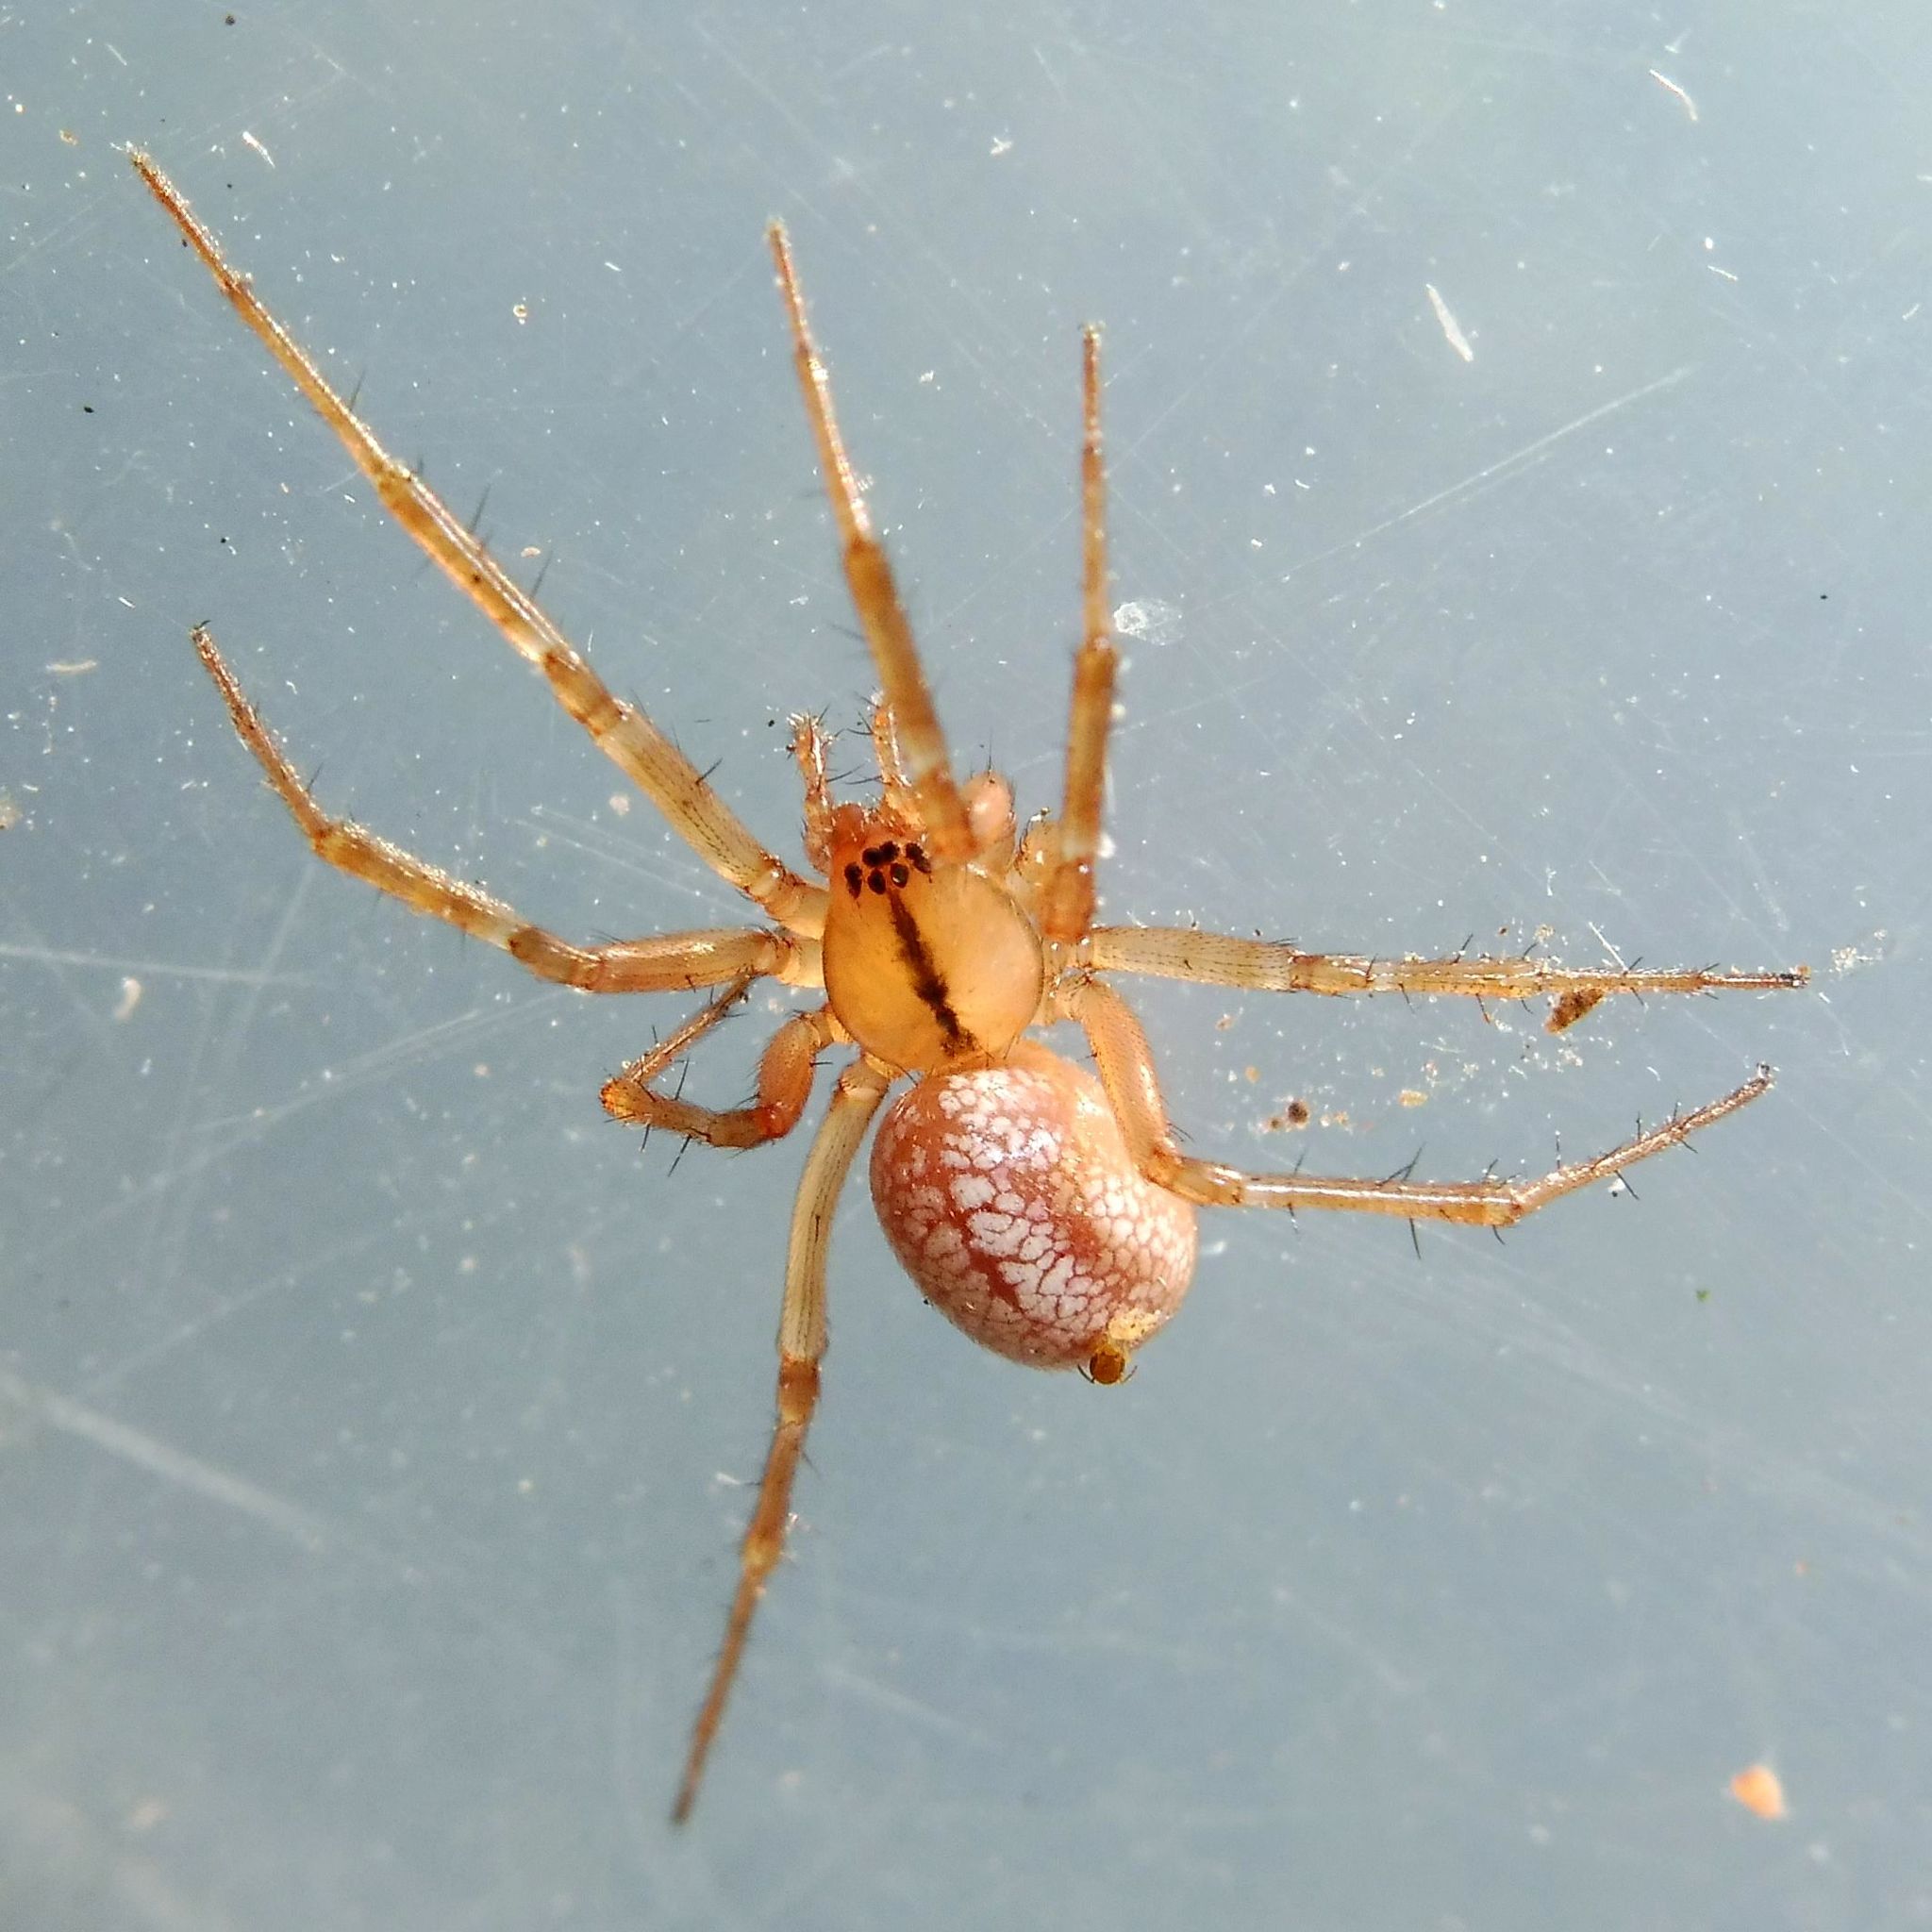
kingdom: Animalia
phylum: Arthropoda
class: Arachnida
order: Araneae
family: Linyphiidae
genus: Stemonyphantes
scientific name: Stemonyphantes lineatus
